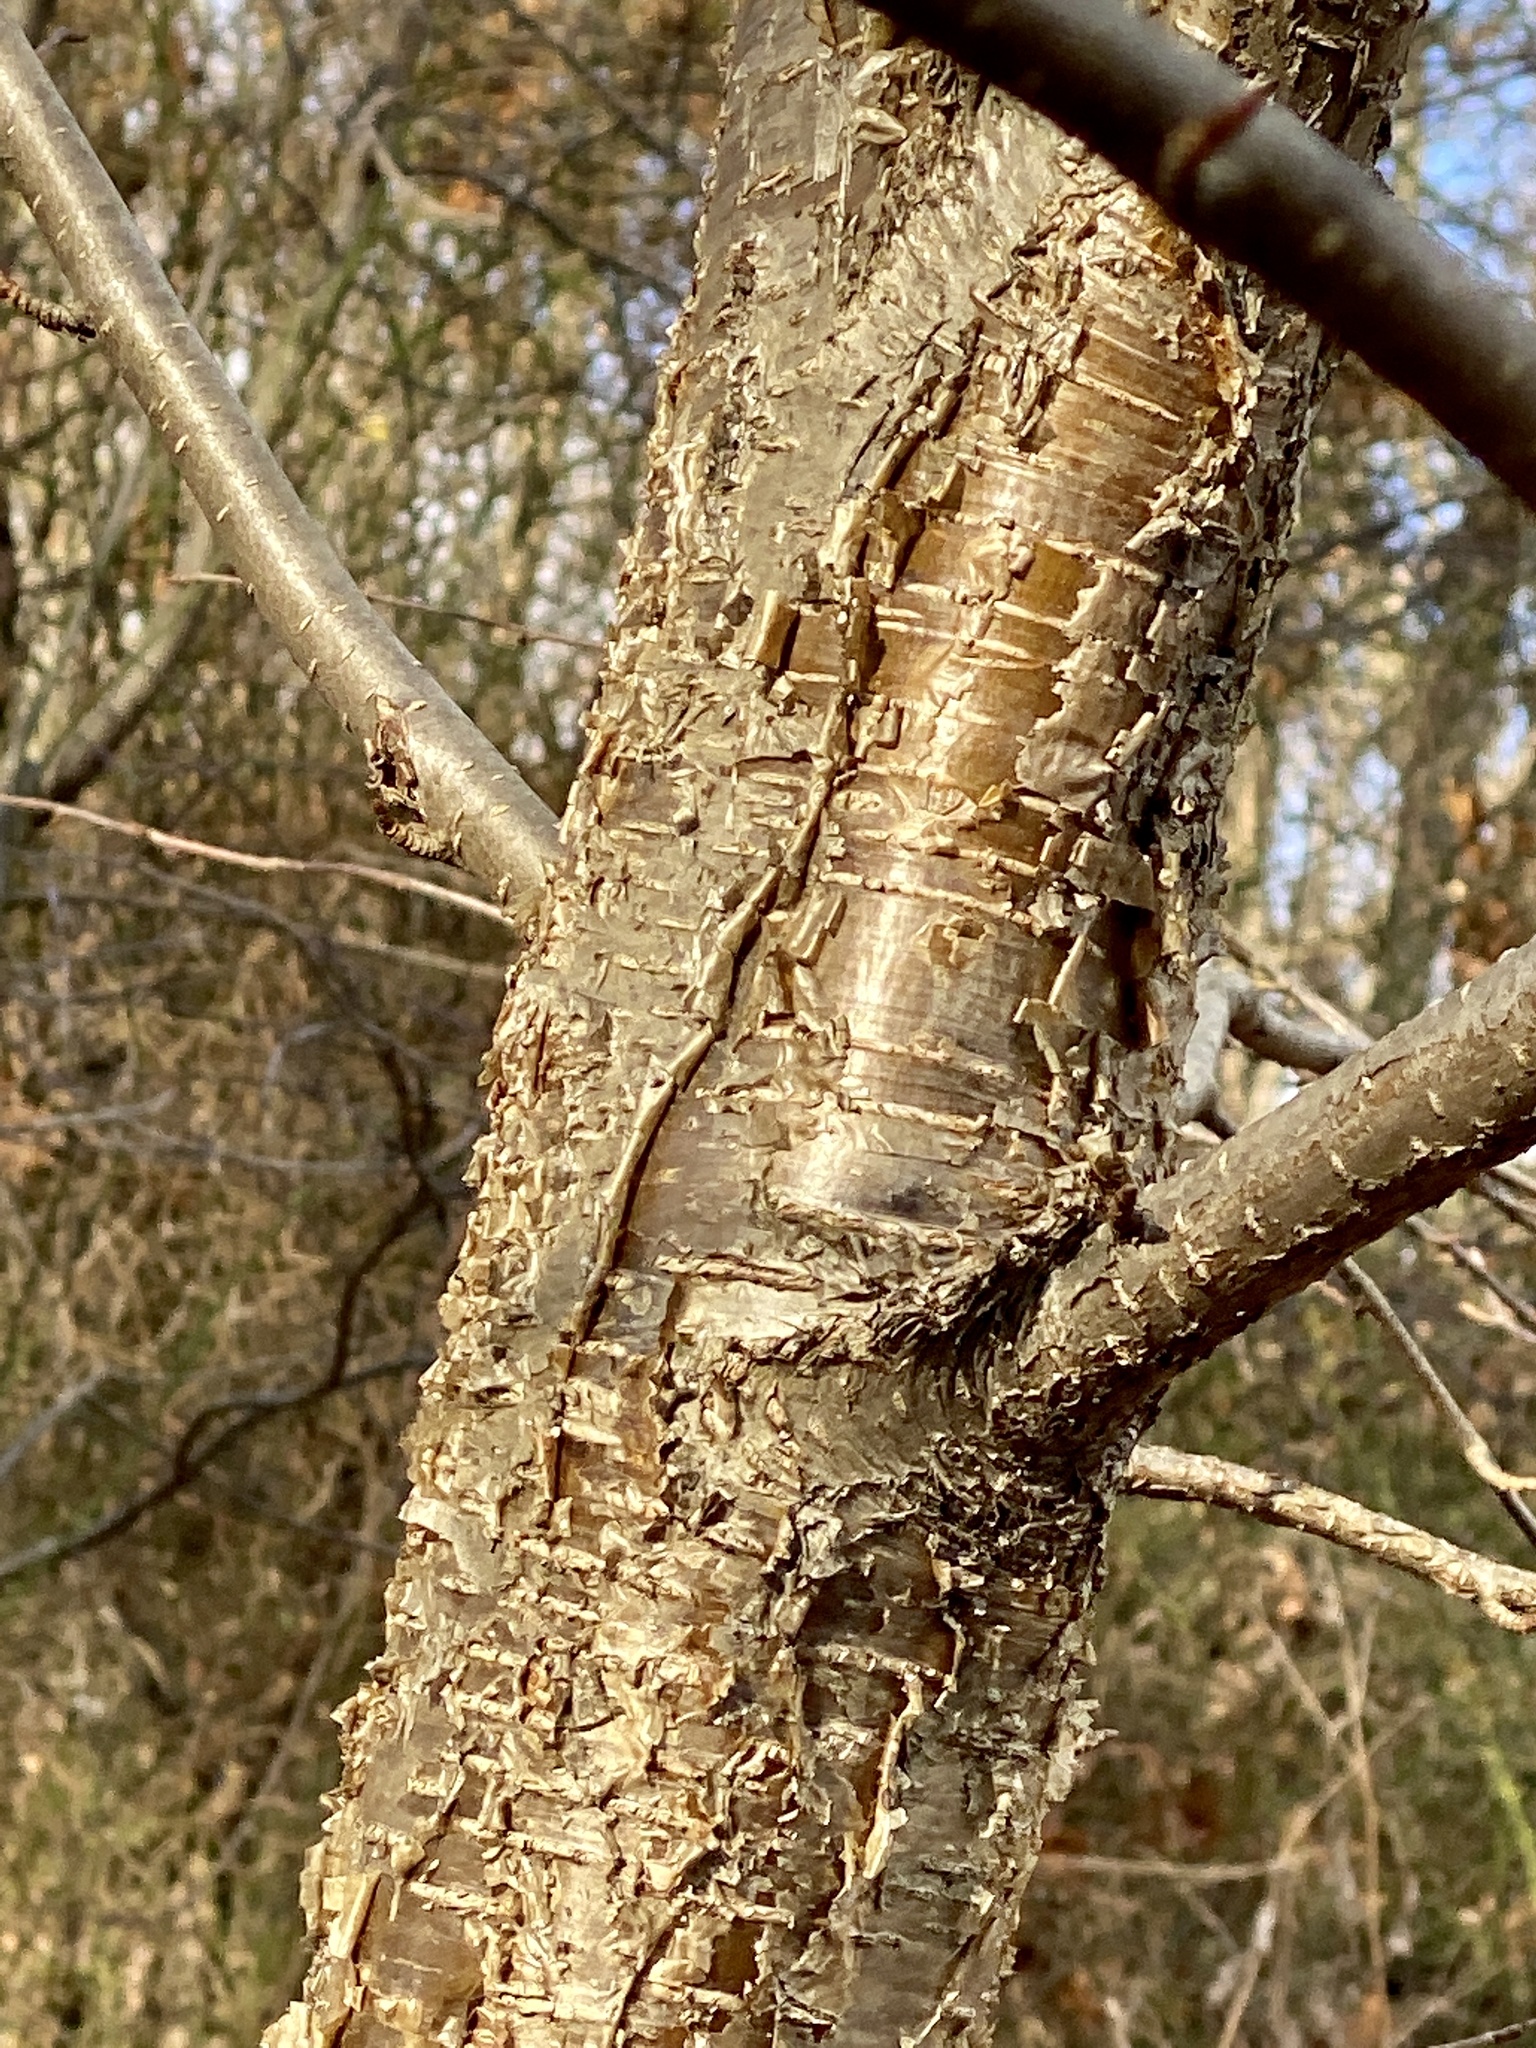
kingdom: Plantae
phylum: Tracheophyta
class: Magnoliopsida
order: Fagales
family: Betulaceae
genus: Betula
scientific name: Betula alleghaniensis
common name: Yellow birch
